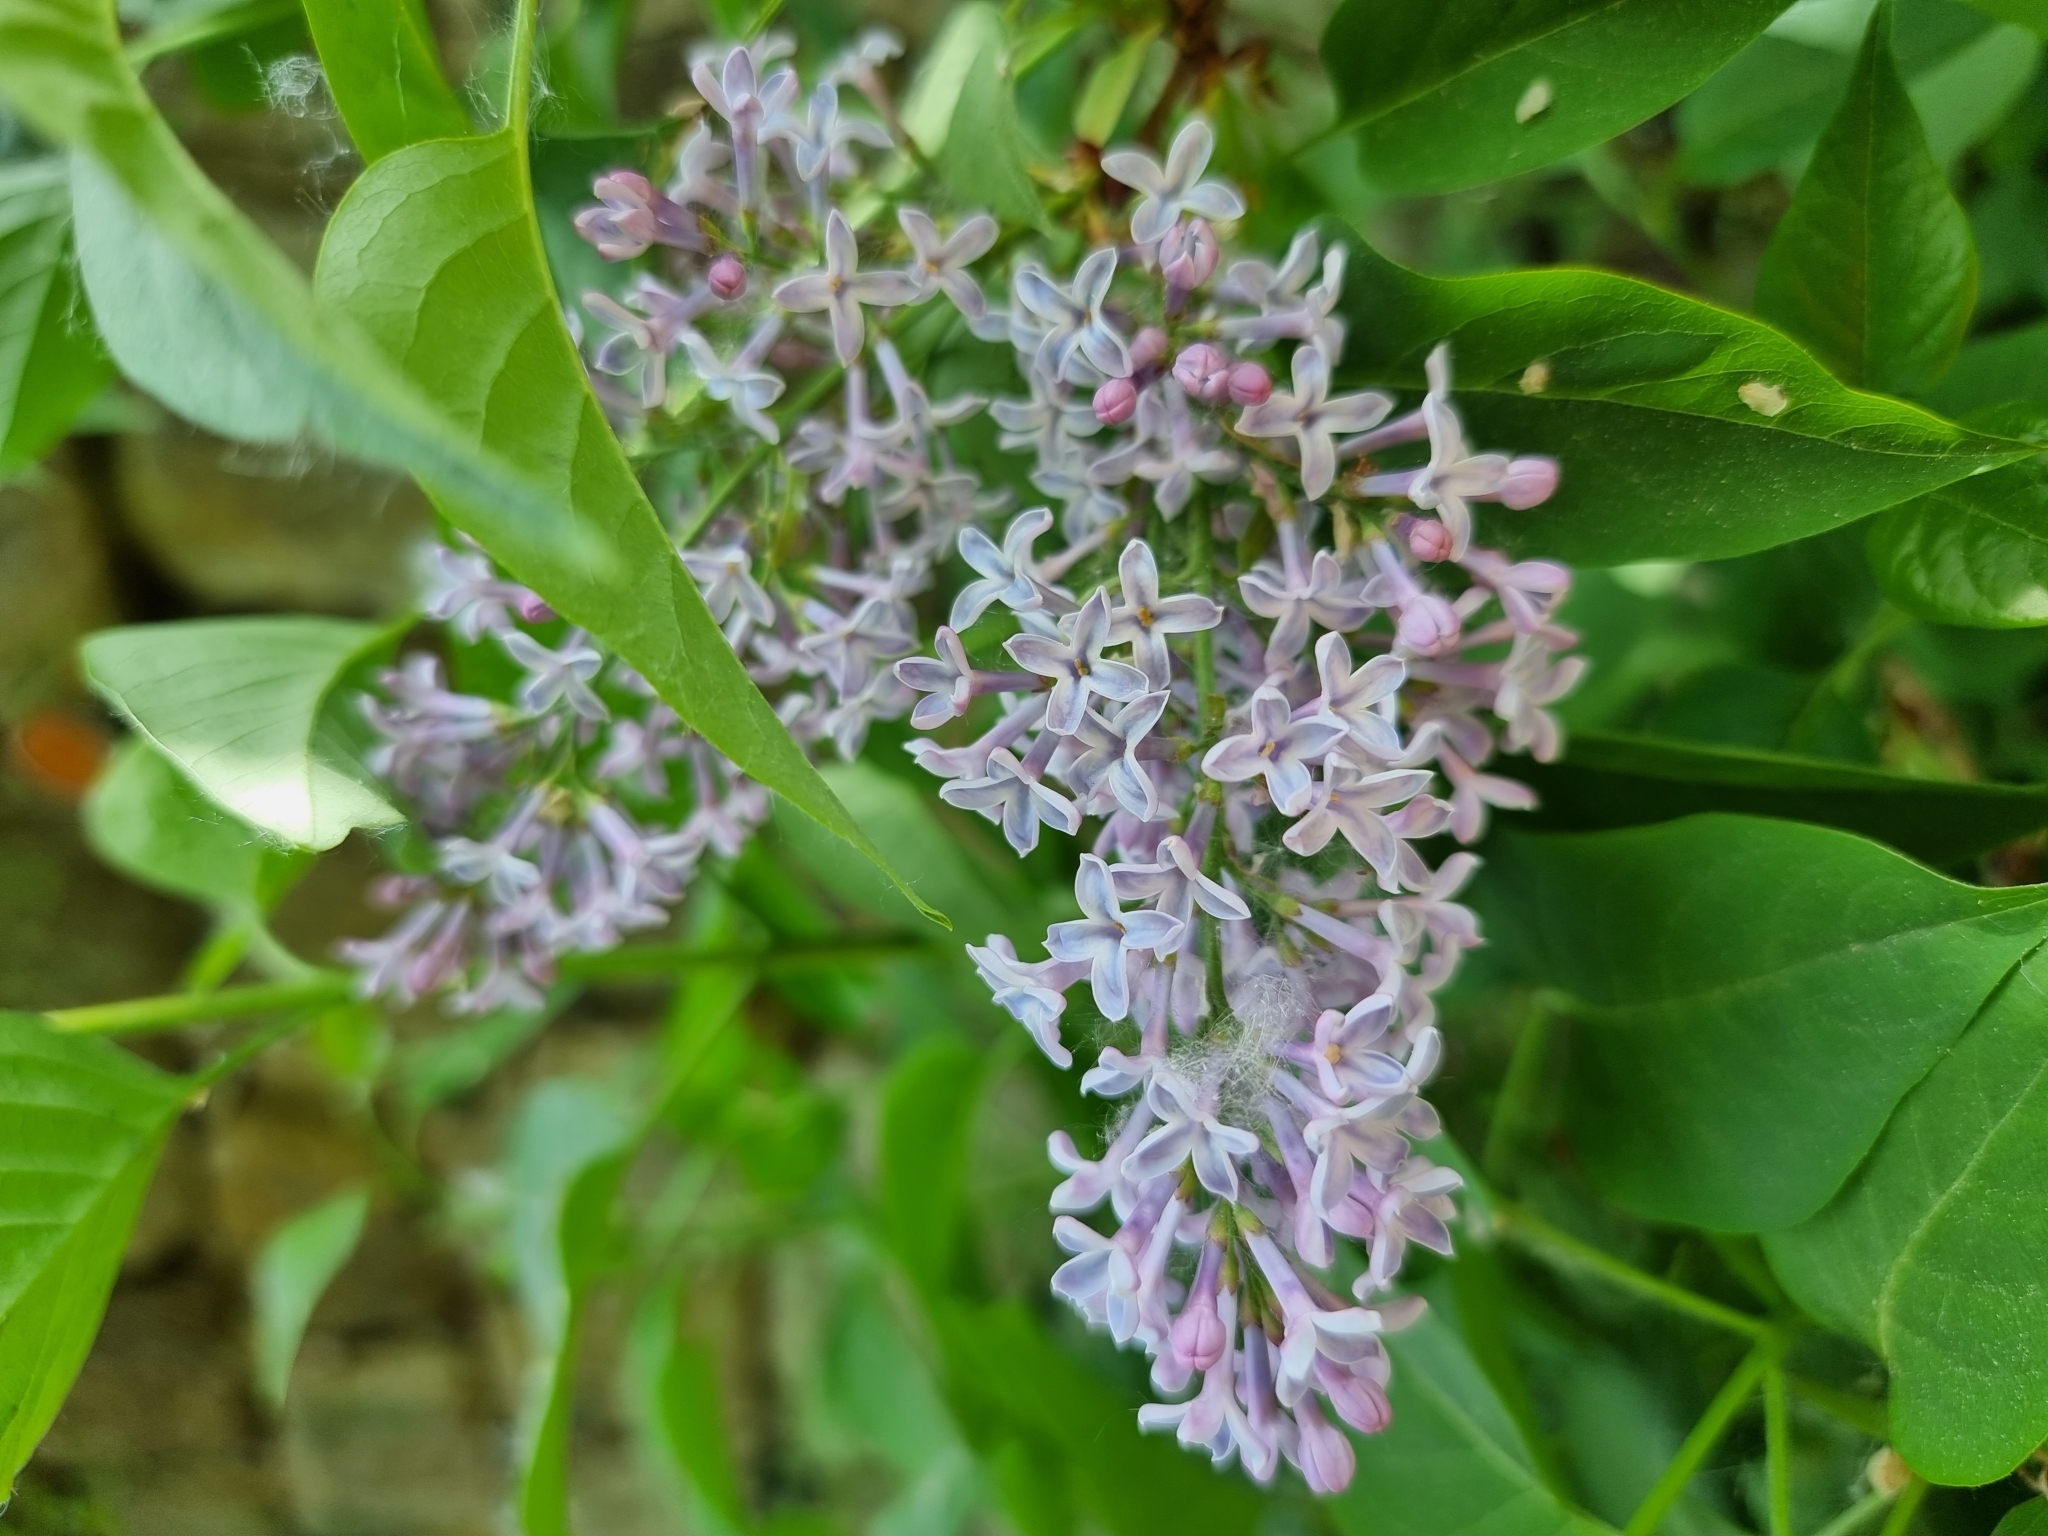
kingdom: Plantae
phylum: Tracheophyta
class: Magnoliopsida
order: Lamiales
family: Oleaceae
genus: Syringa
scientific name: Syringa vulgaris
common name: Common lilac
